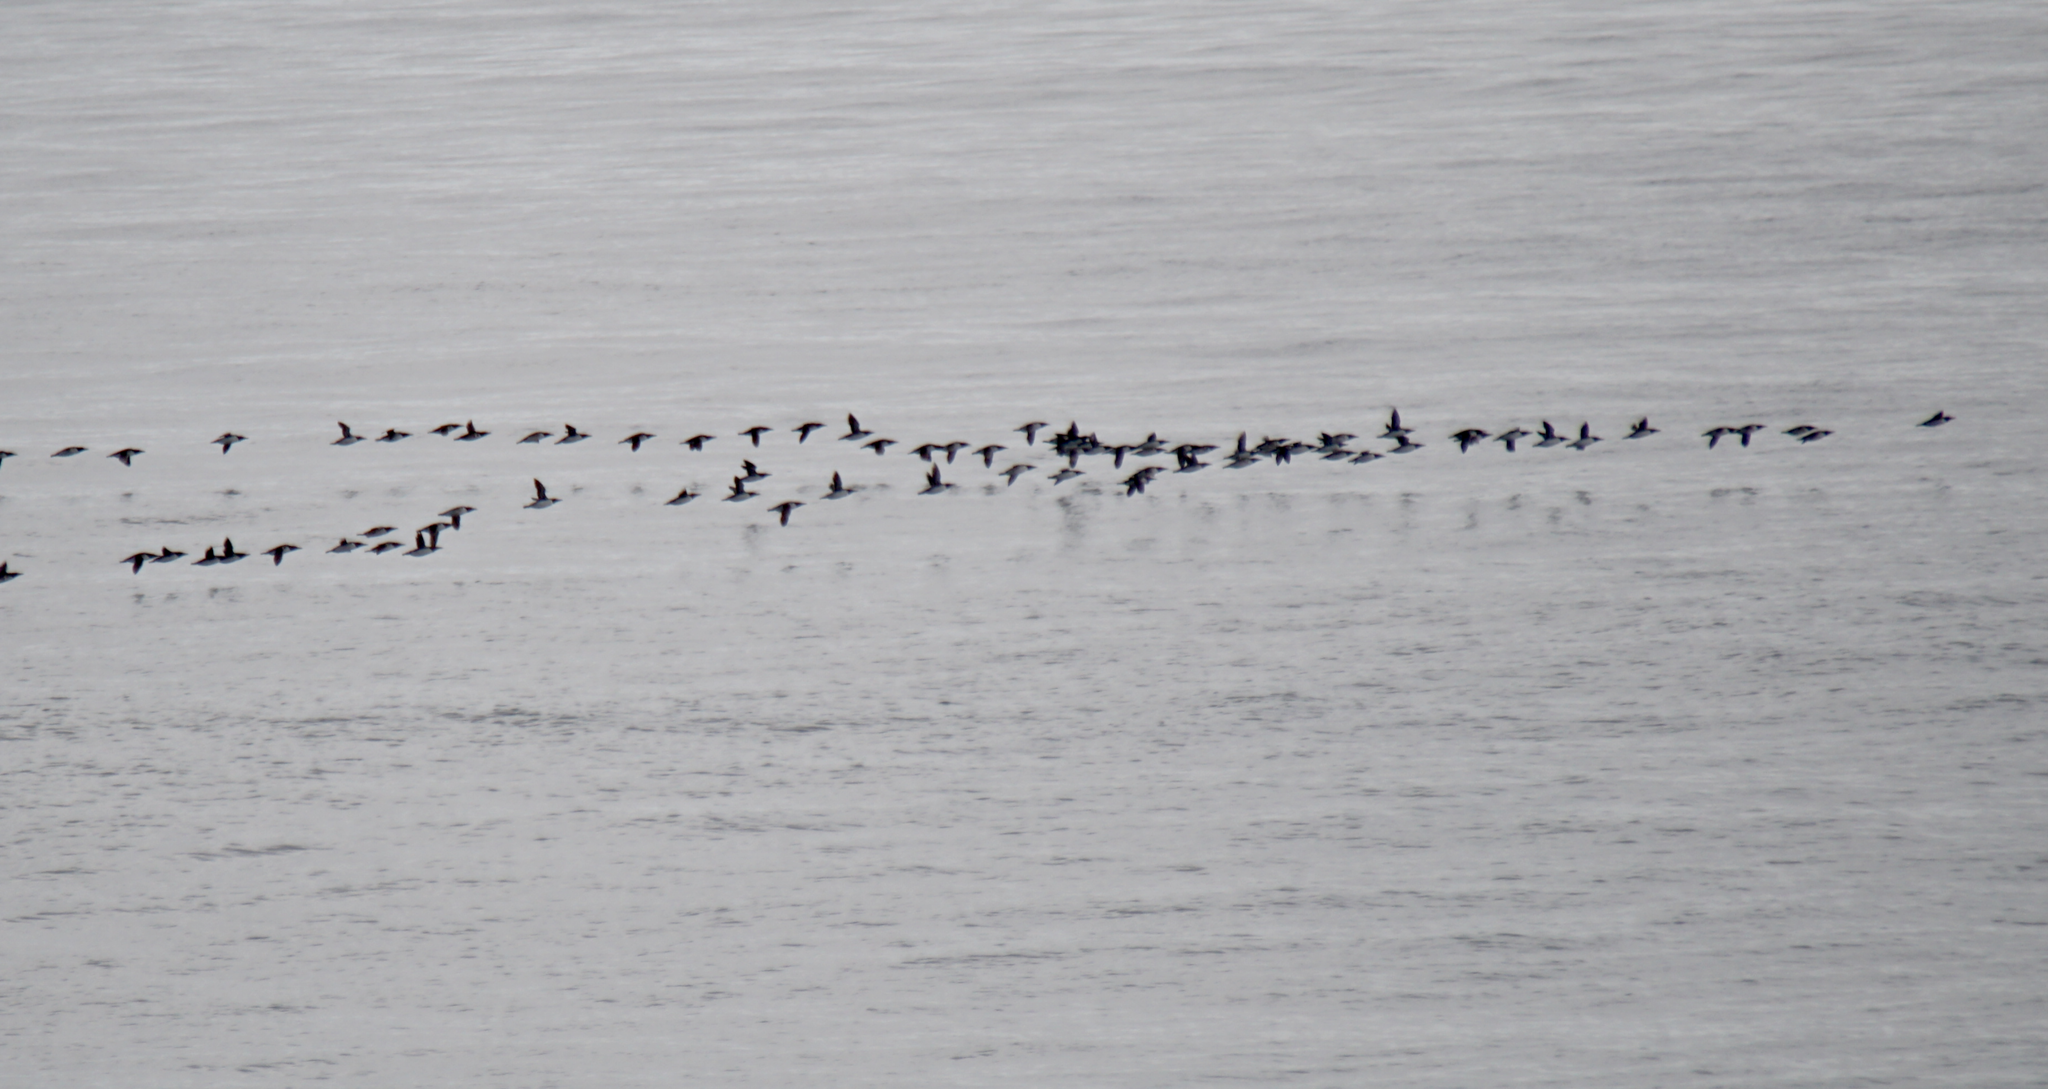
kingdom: Animalia
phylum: Chordata
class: Aves
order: Charadriiformes
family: Alcidae
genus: Uria
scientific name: Uria aalge
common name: Common murre
